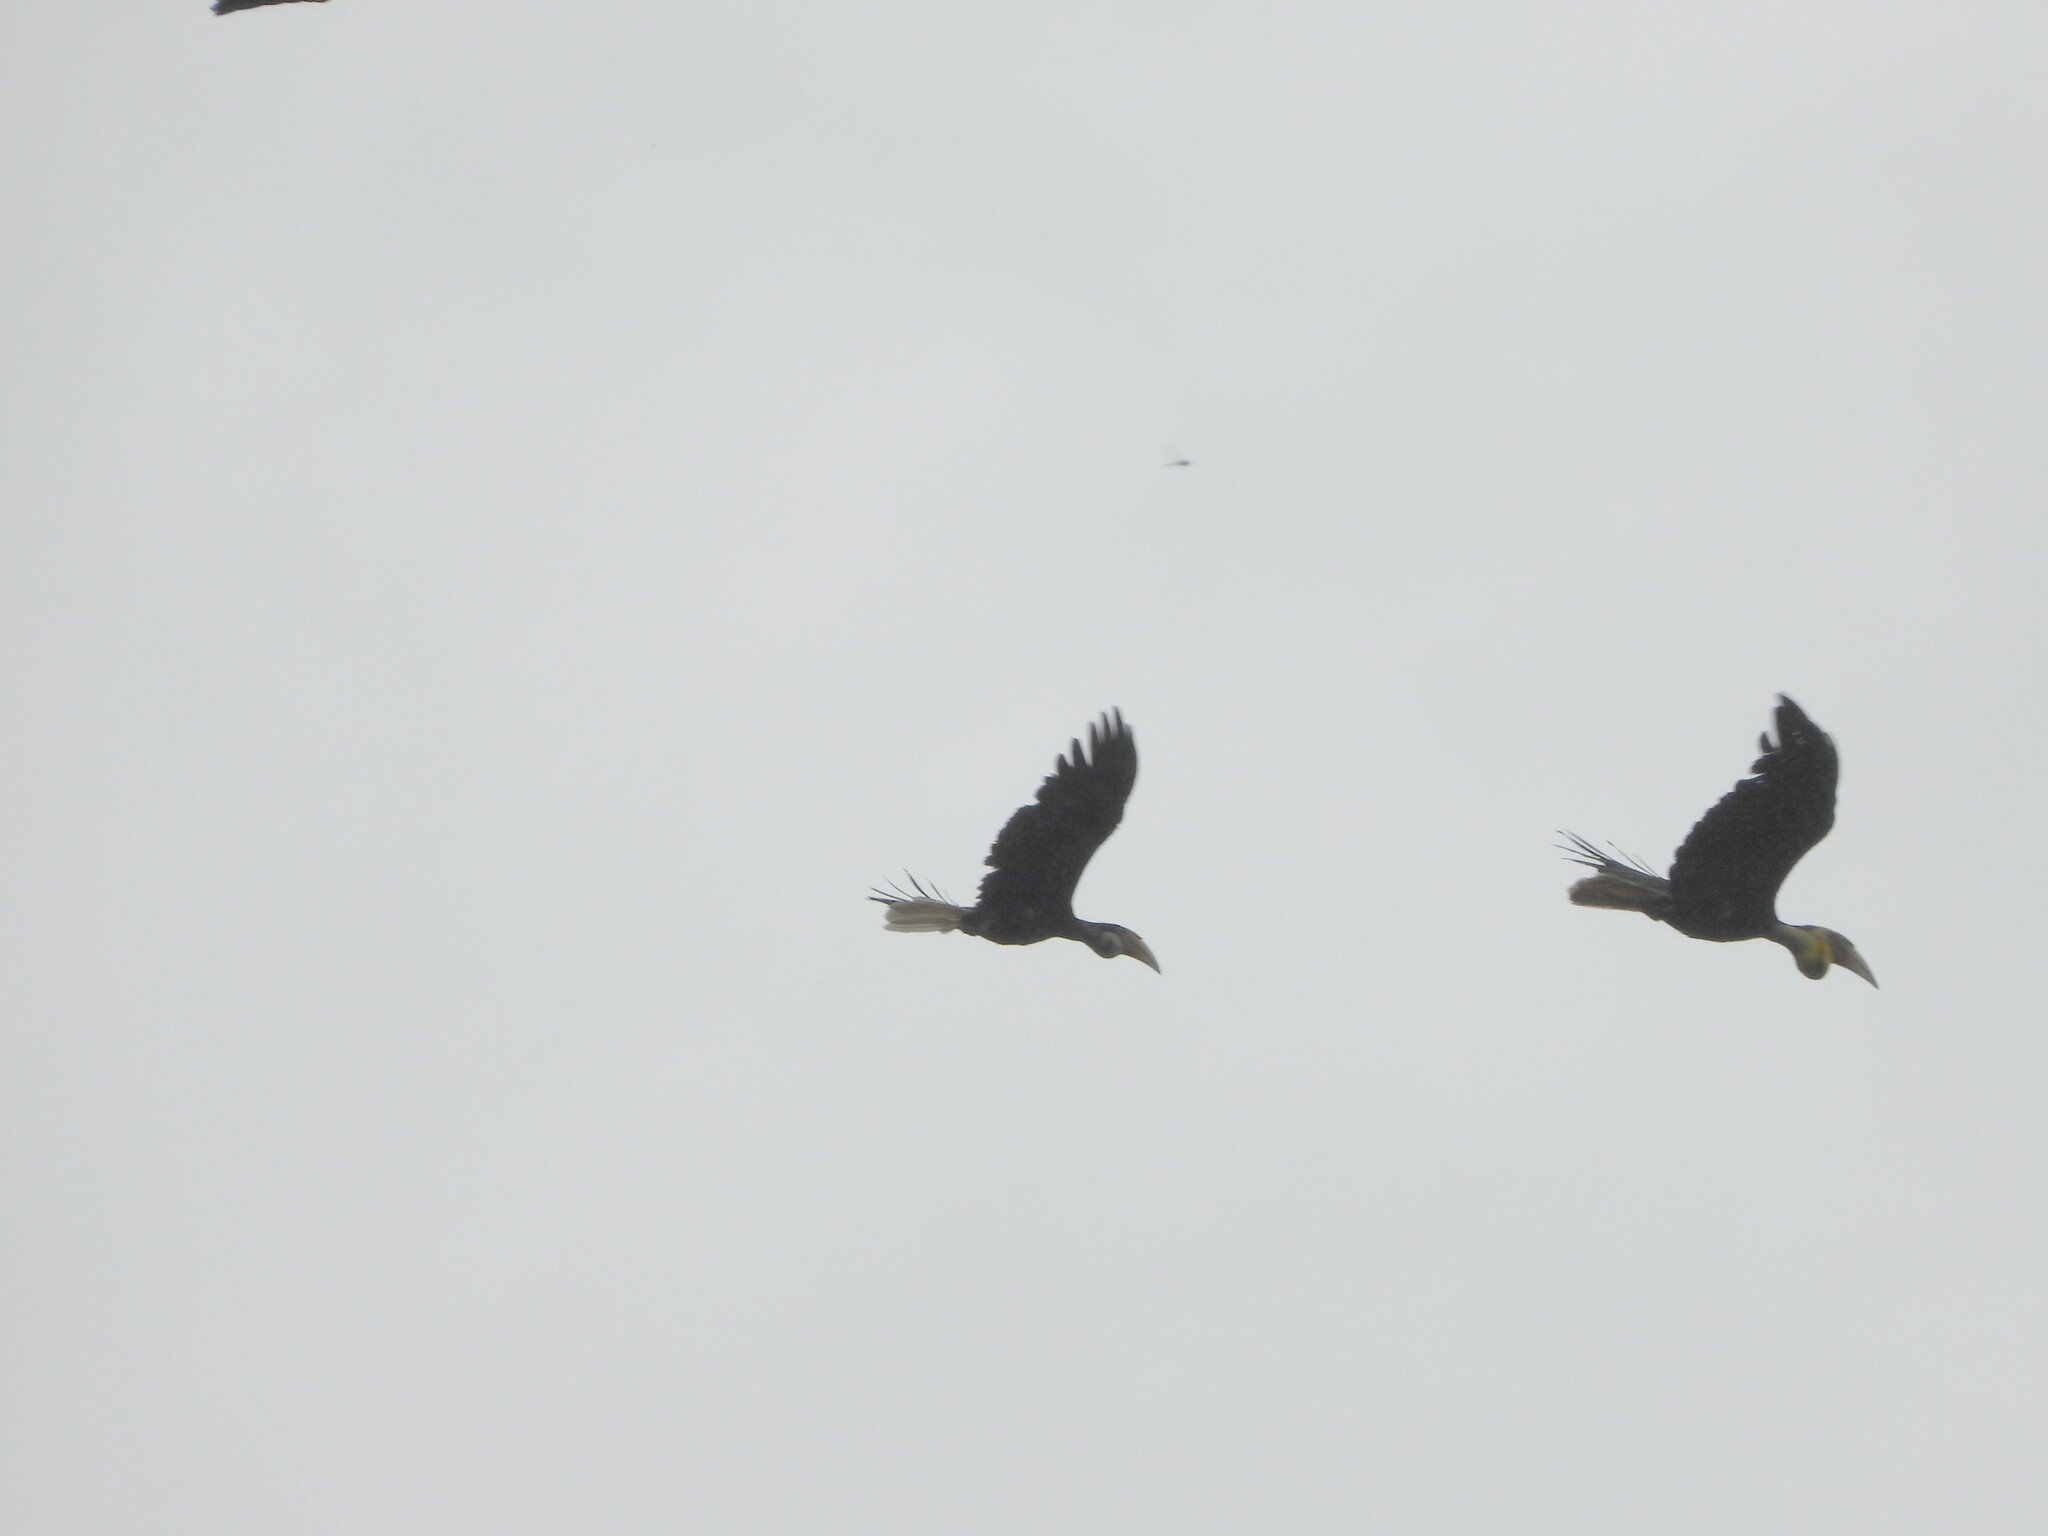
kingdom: Animalia
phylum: Chordata
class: Aves
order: Bucerotiformes
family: Bucerotidae
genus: Rhyticeros
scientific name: Rhyticeros undulatus
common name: Wreathed hornbill
